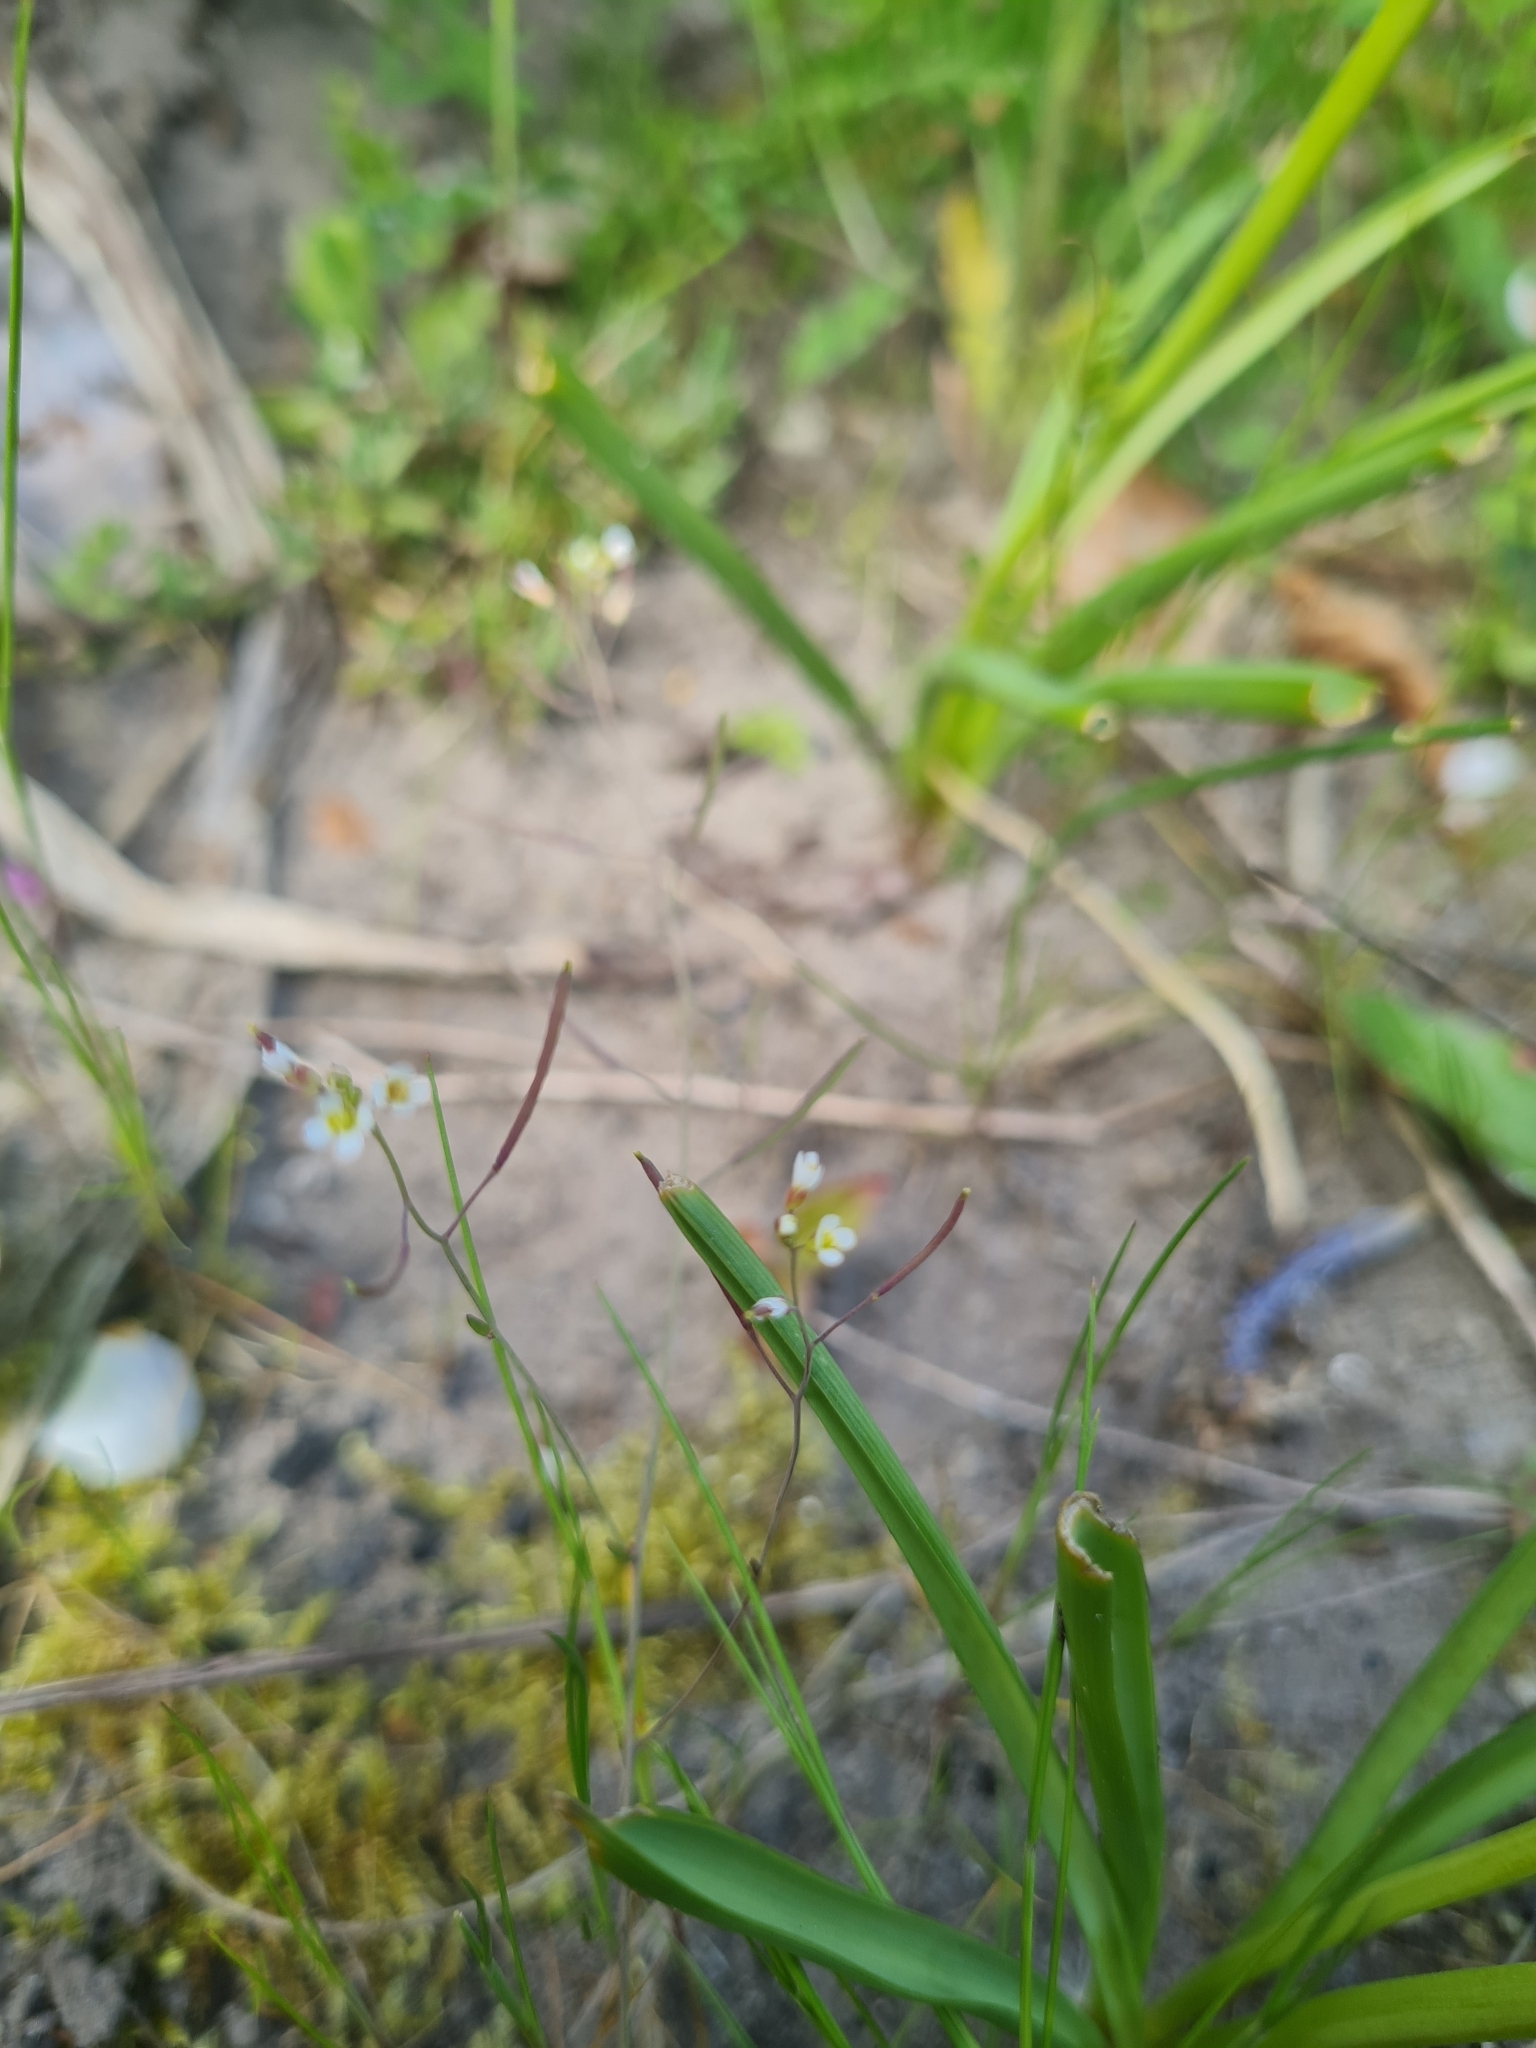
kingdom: Plantae
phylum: Tracheophyta
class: Magnoliopsida
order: Brassicales
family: Brassicaceae
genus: Arabidopsis
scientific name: Arabidopsis thaliana
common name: Thale cress
